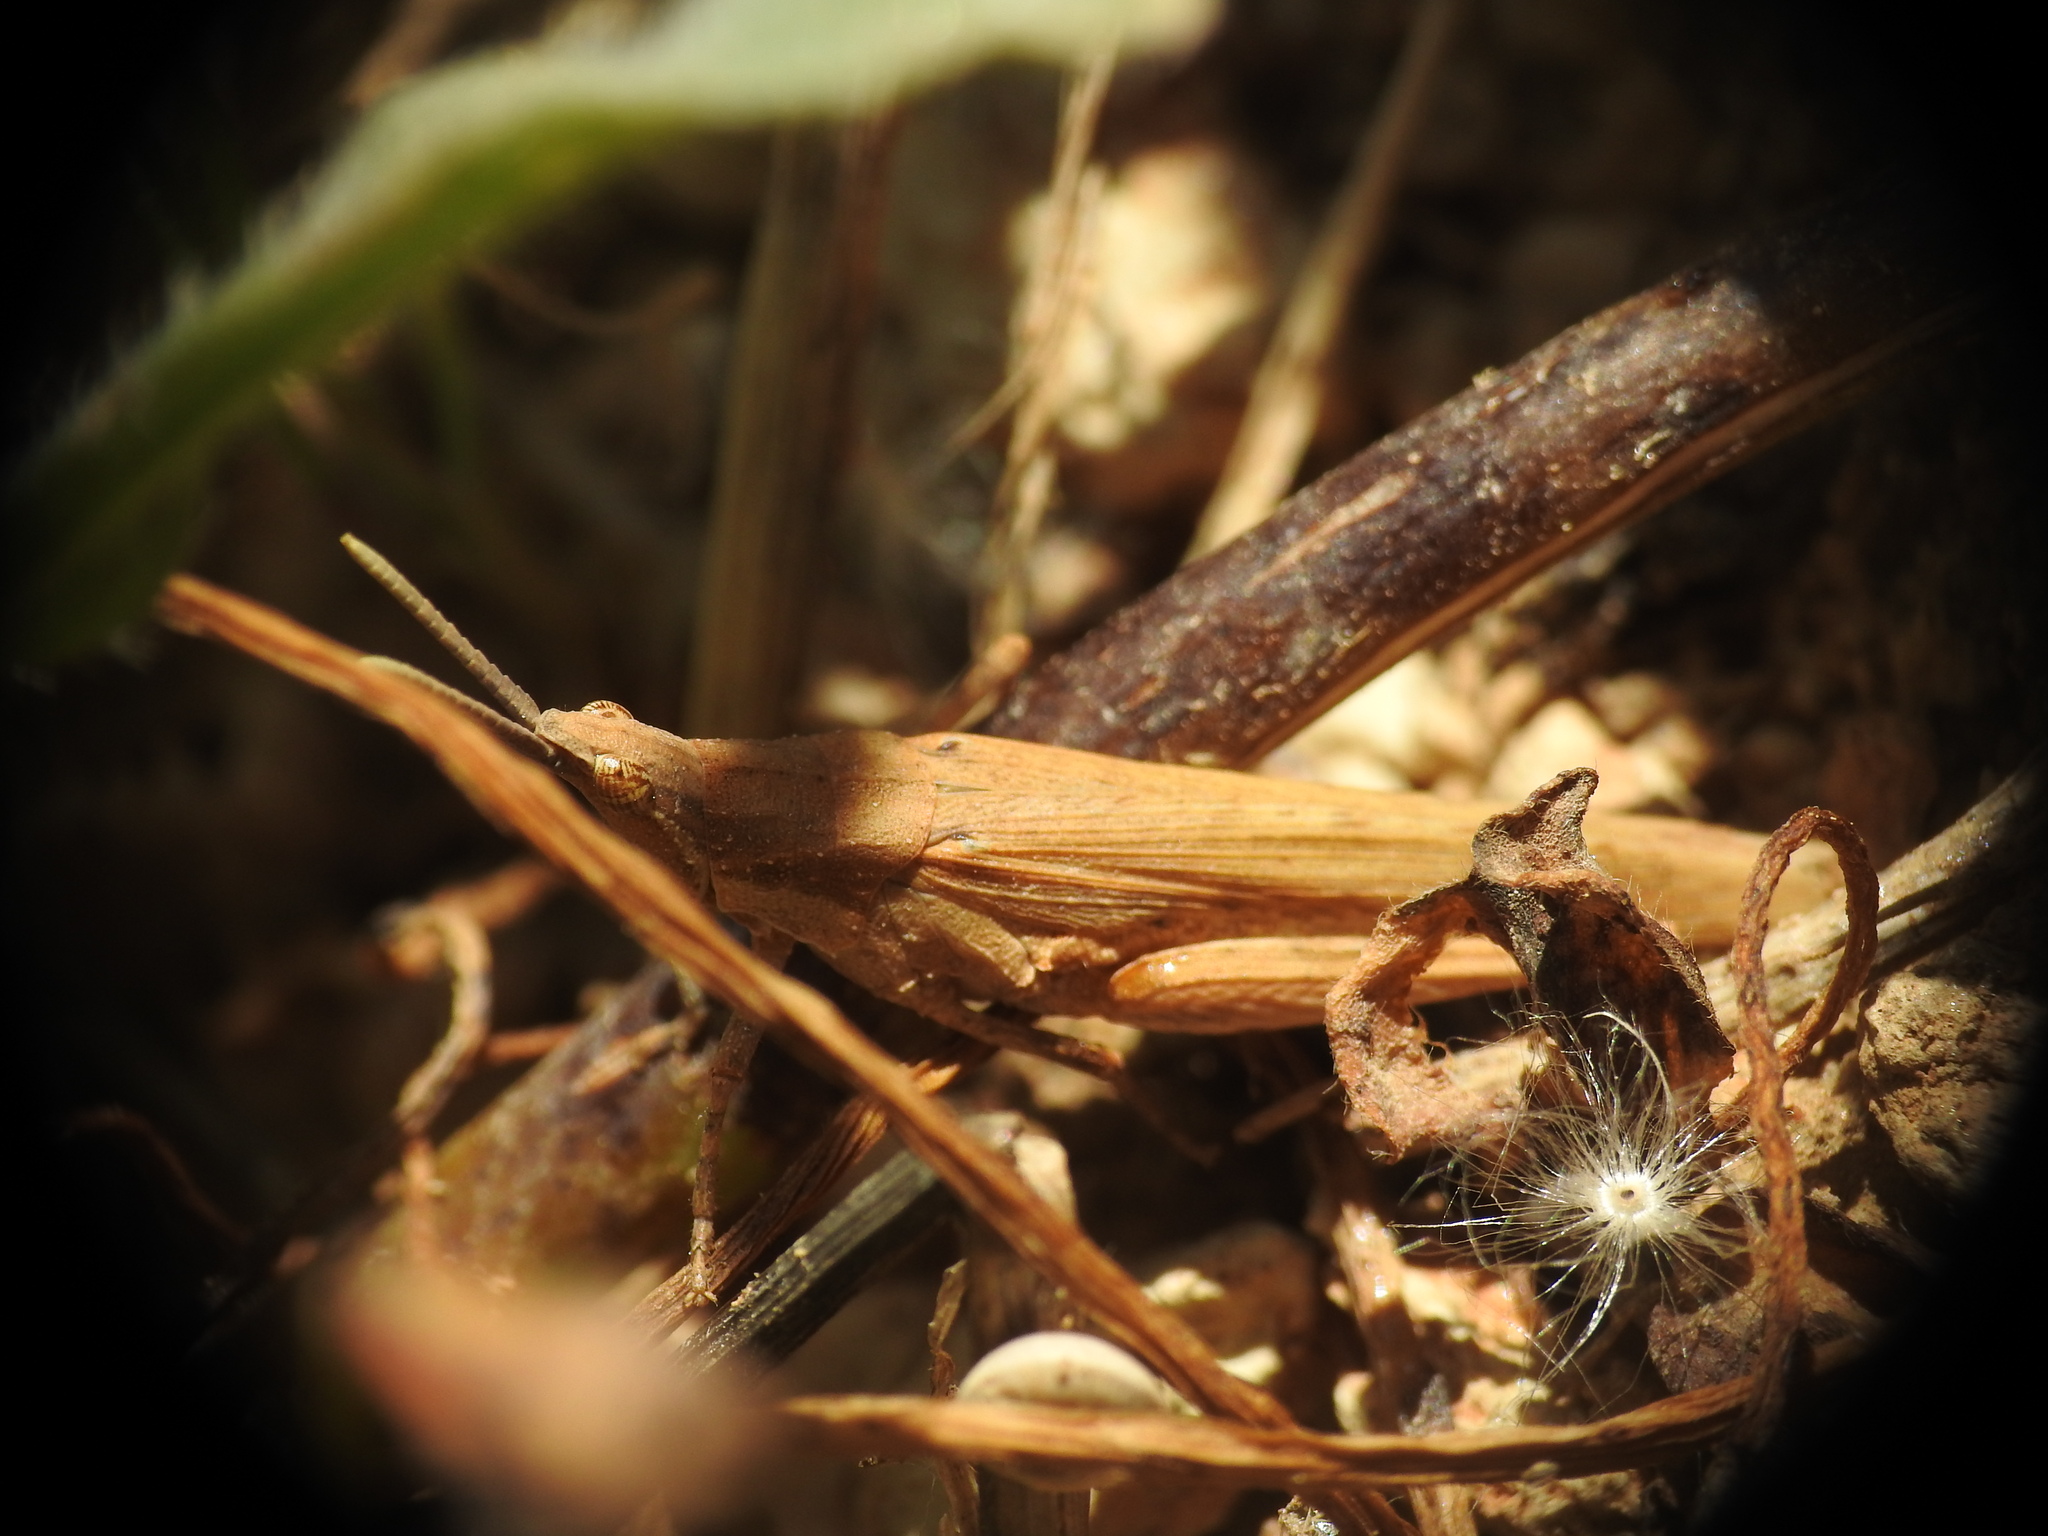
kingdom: Animalia
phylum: Arthropoda
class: Insecta
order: Orthoptera
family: Pyrgomorphidae
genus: Pyrgomorpha
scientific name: Pyrgomorpha conica
